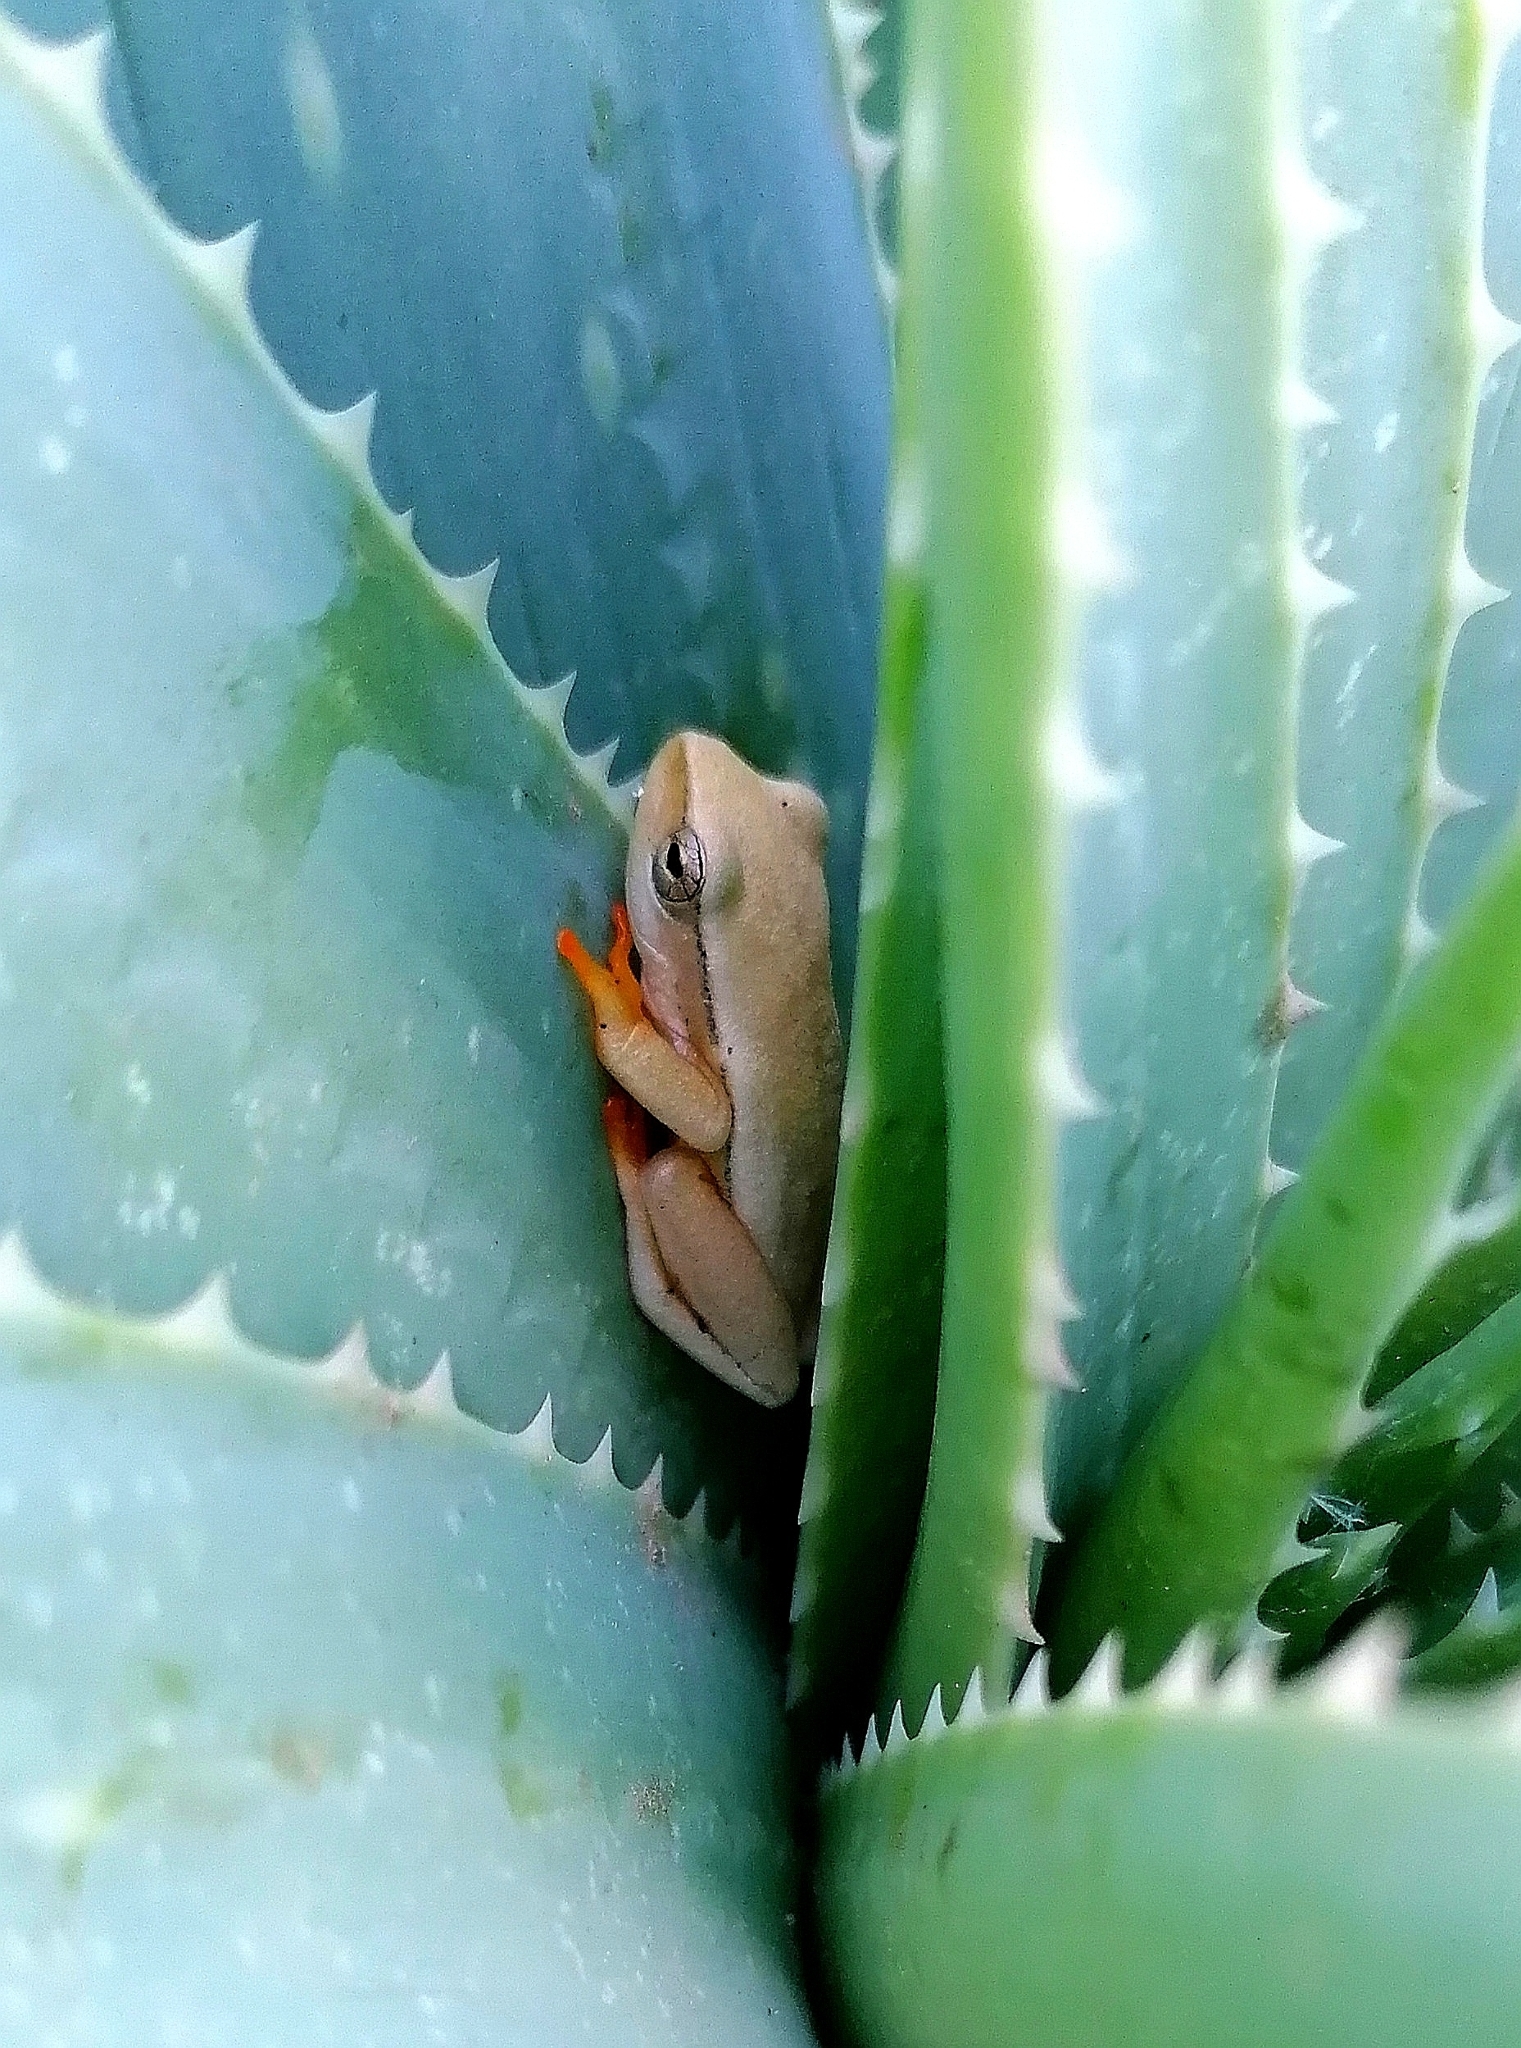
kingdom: Animalia
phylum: Chordata
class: Amphibia
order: Anura
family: Hyperoliidae
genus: Hyperolius
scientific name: Hyperolius horstockii
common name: Arum lily frog
